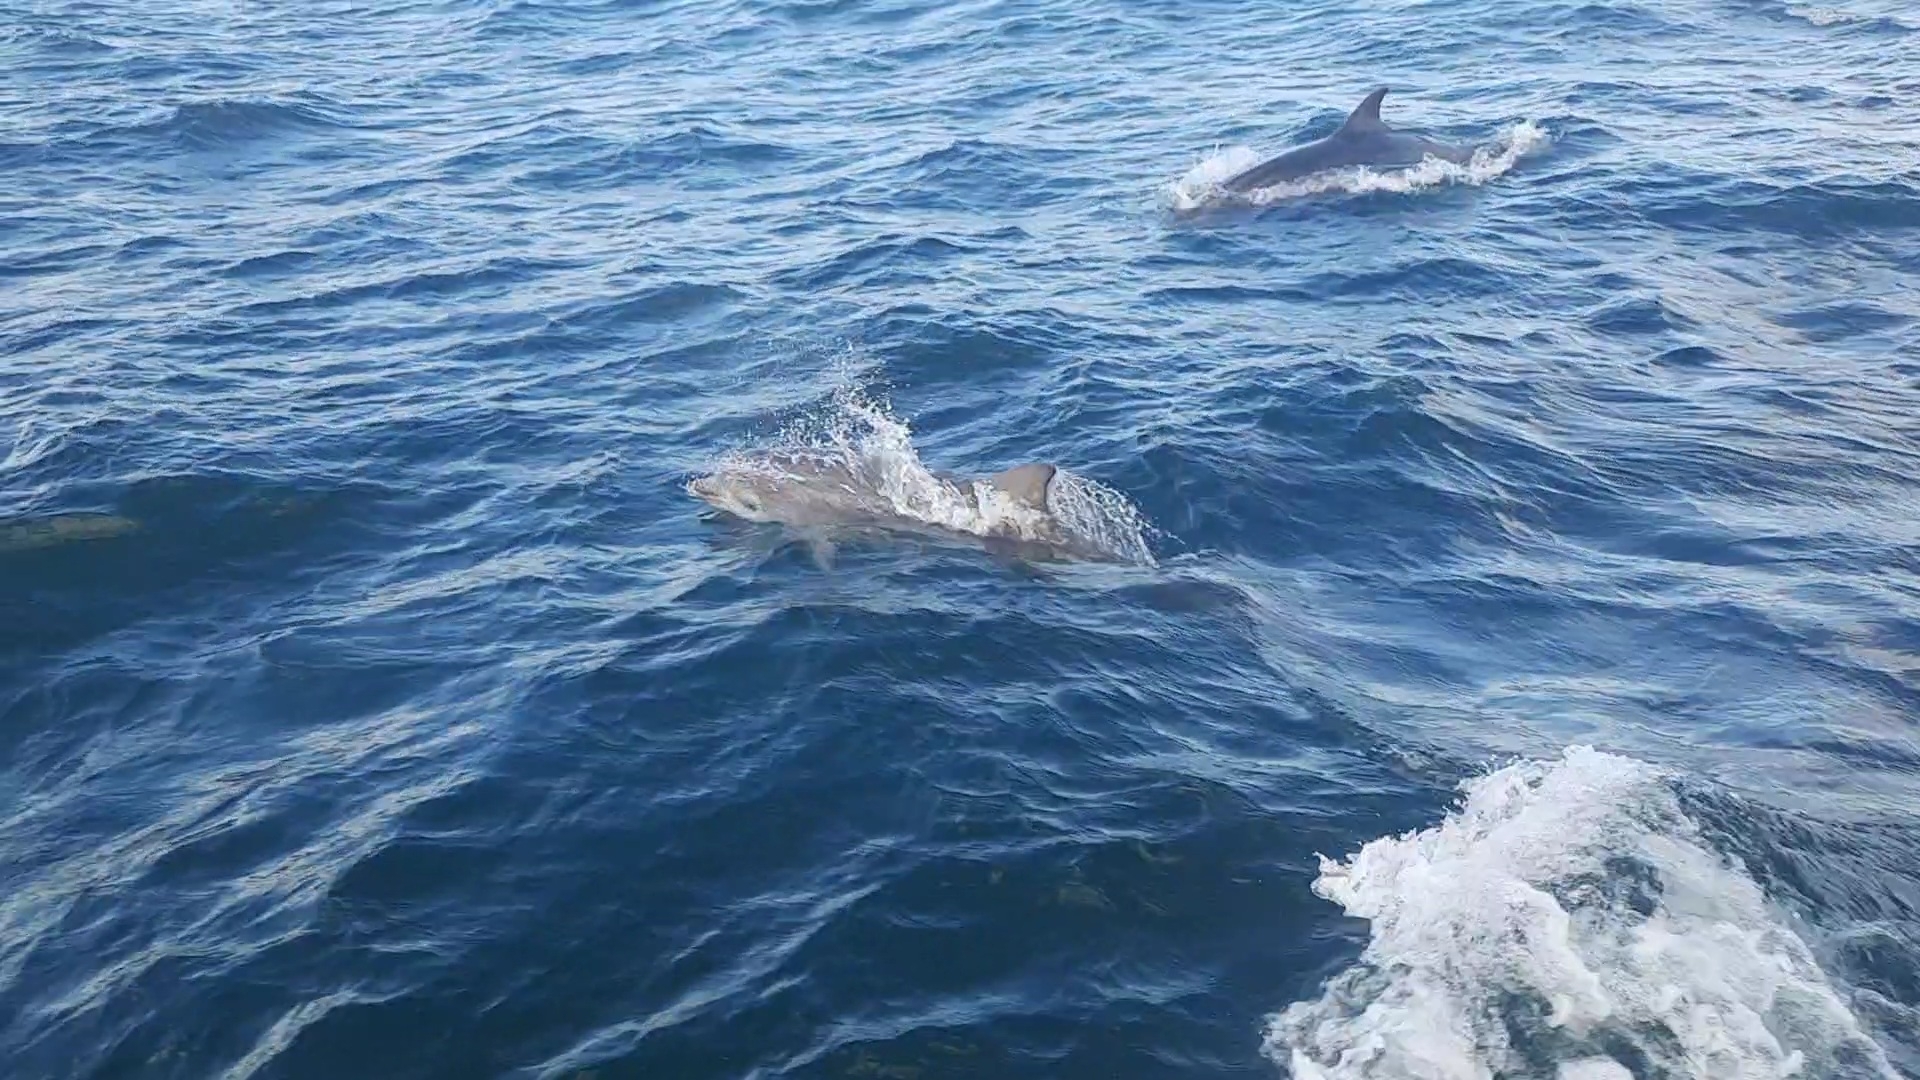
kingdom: Animalia
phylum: Chordata
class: Mammalia
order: Cetacea
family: Delphinidae
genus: Tursiops
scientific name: Tursiops truncatus
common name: Bottlenose dolphin
